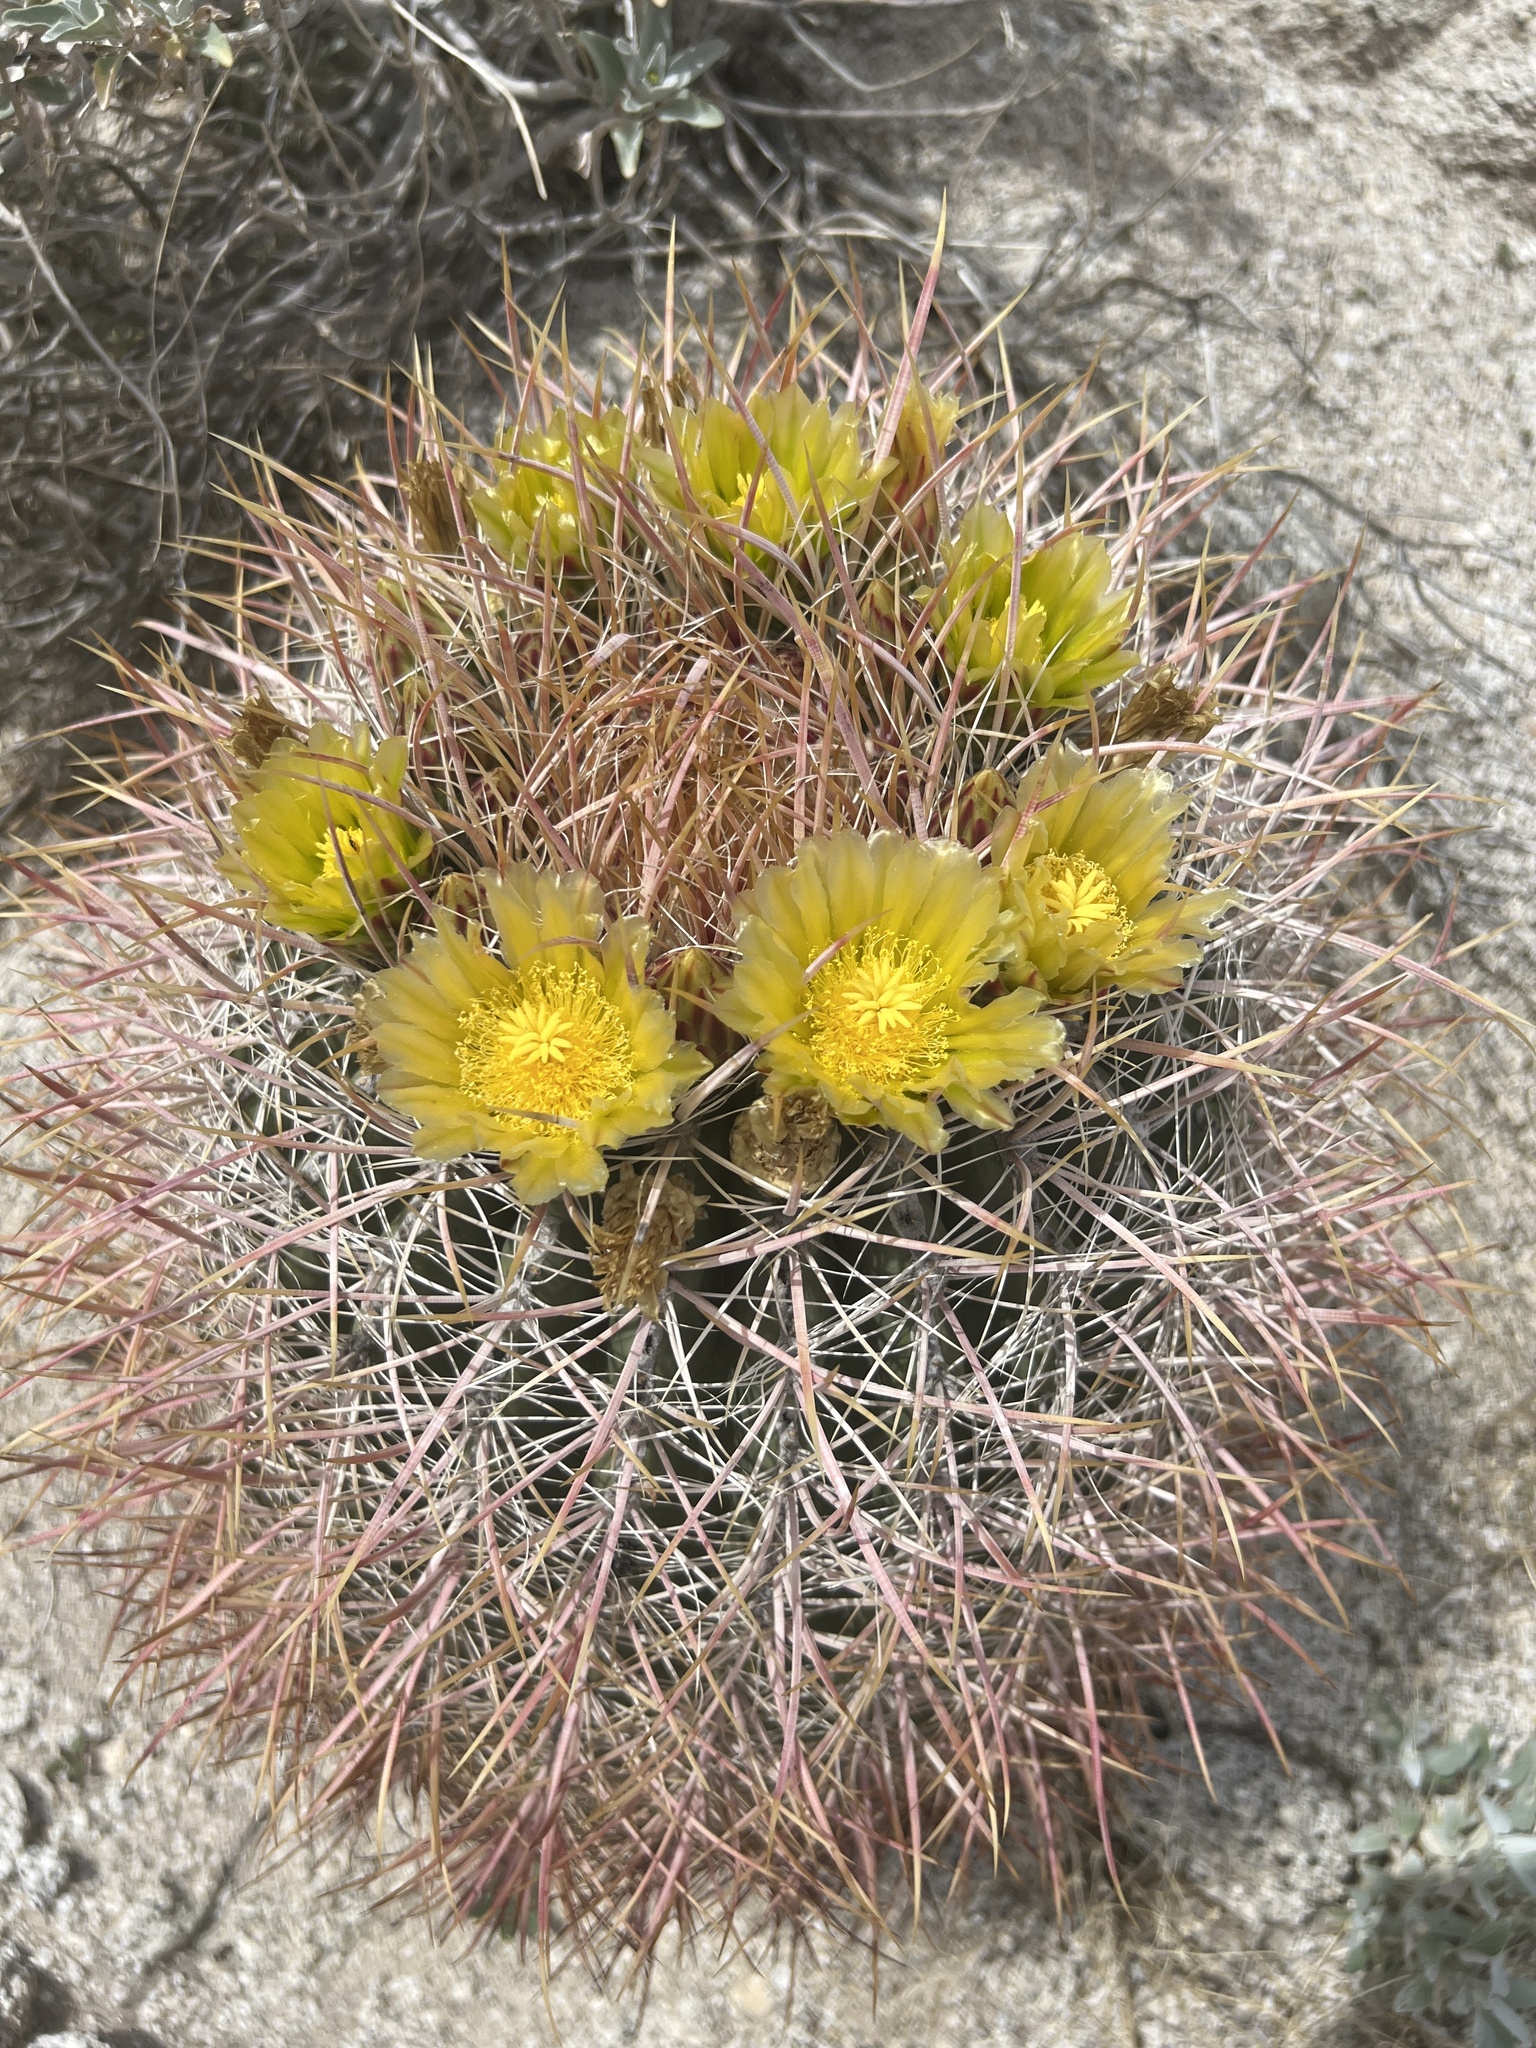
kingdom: Plantae
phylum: Tracheophyta
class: Magnoliopsida
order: Caryophyllales
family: Cactaceae
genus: Ferocactus
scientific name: Ferocactus cylindraceus
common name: California barrel cactus
